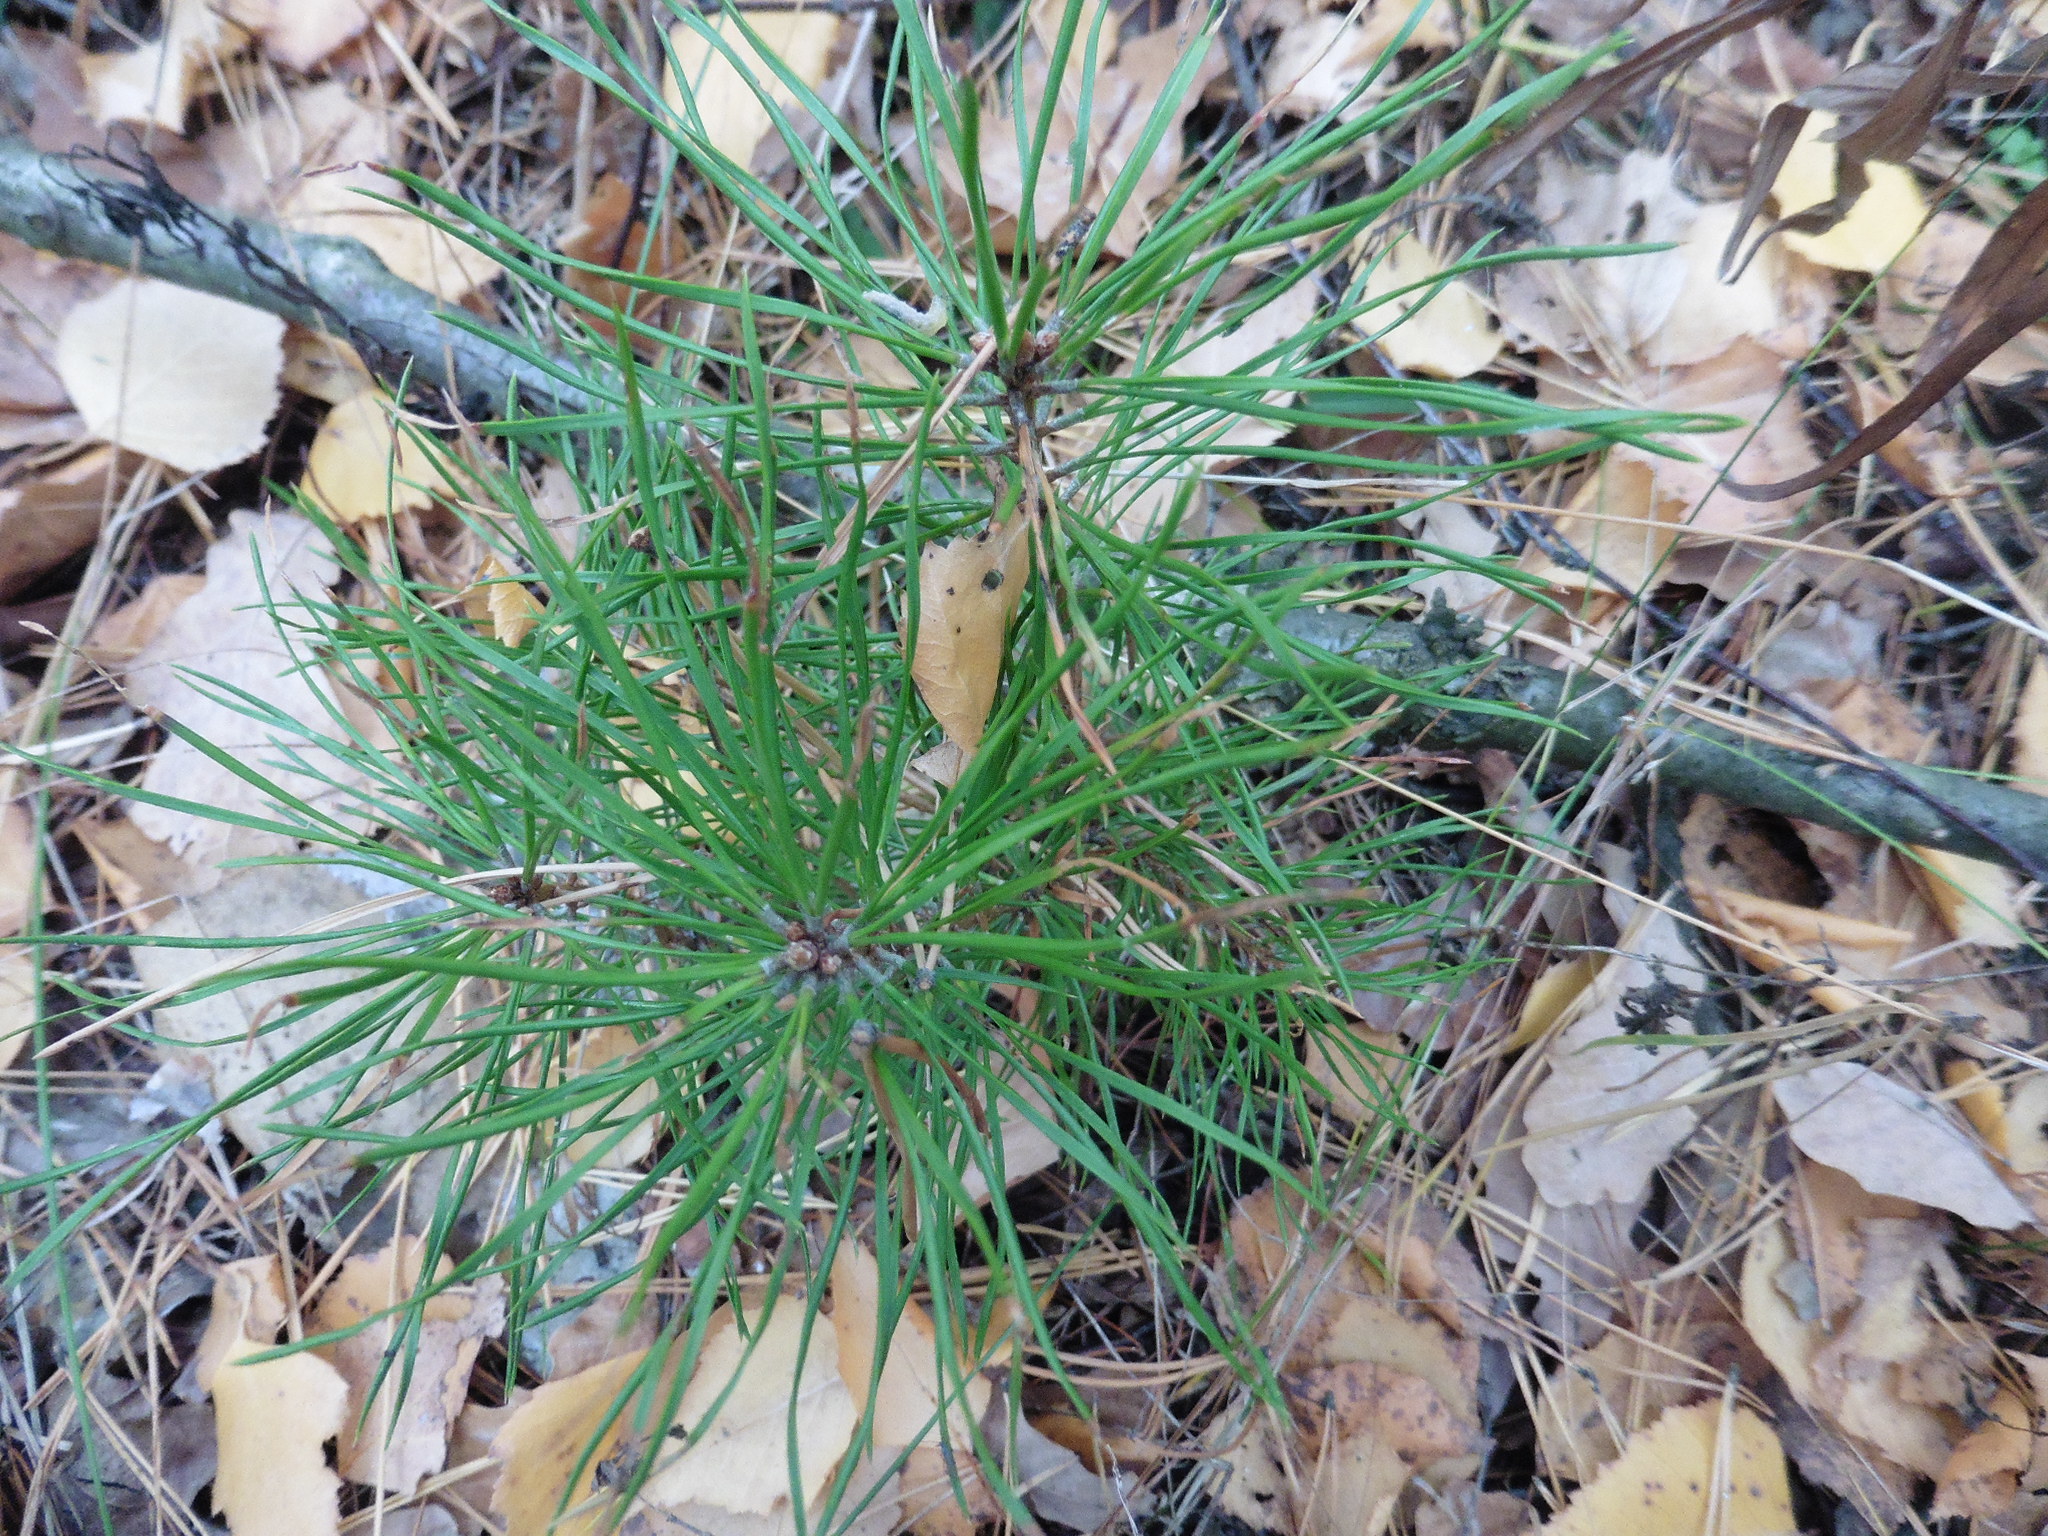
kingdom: Plantae
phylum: Tracheophyta
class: Pinopsida
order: Pinales
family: Pinaceae
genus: Pinus
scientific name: Pinus sylvestris
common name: Scots pine
